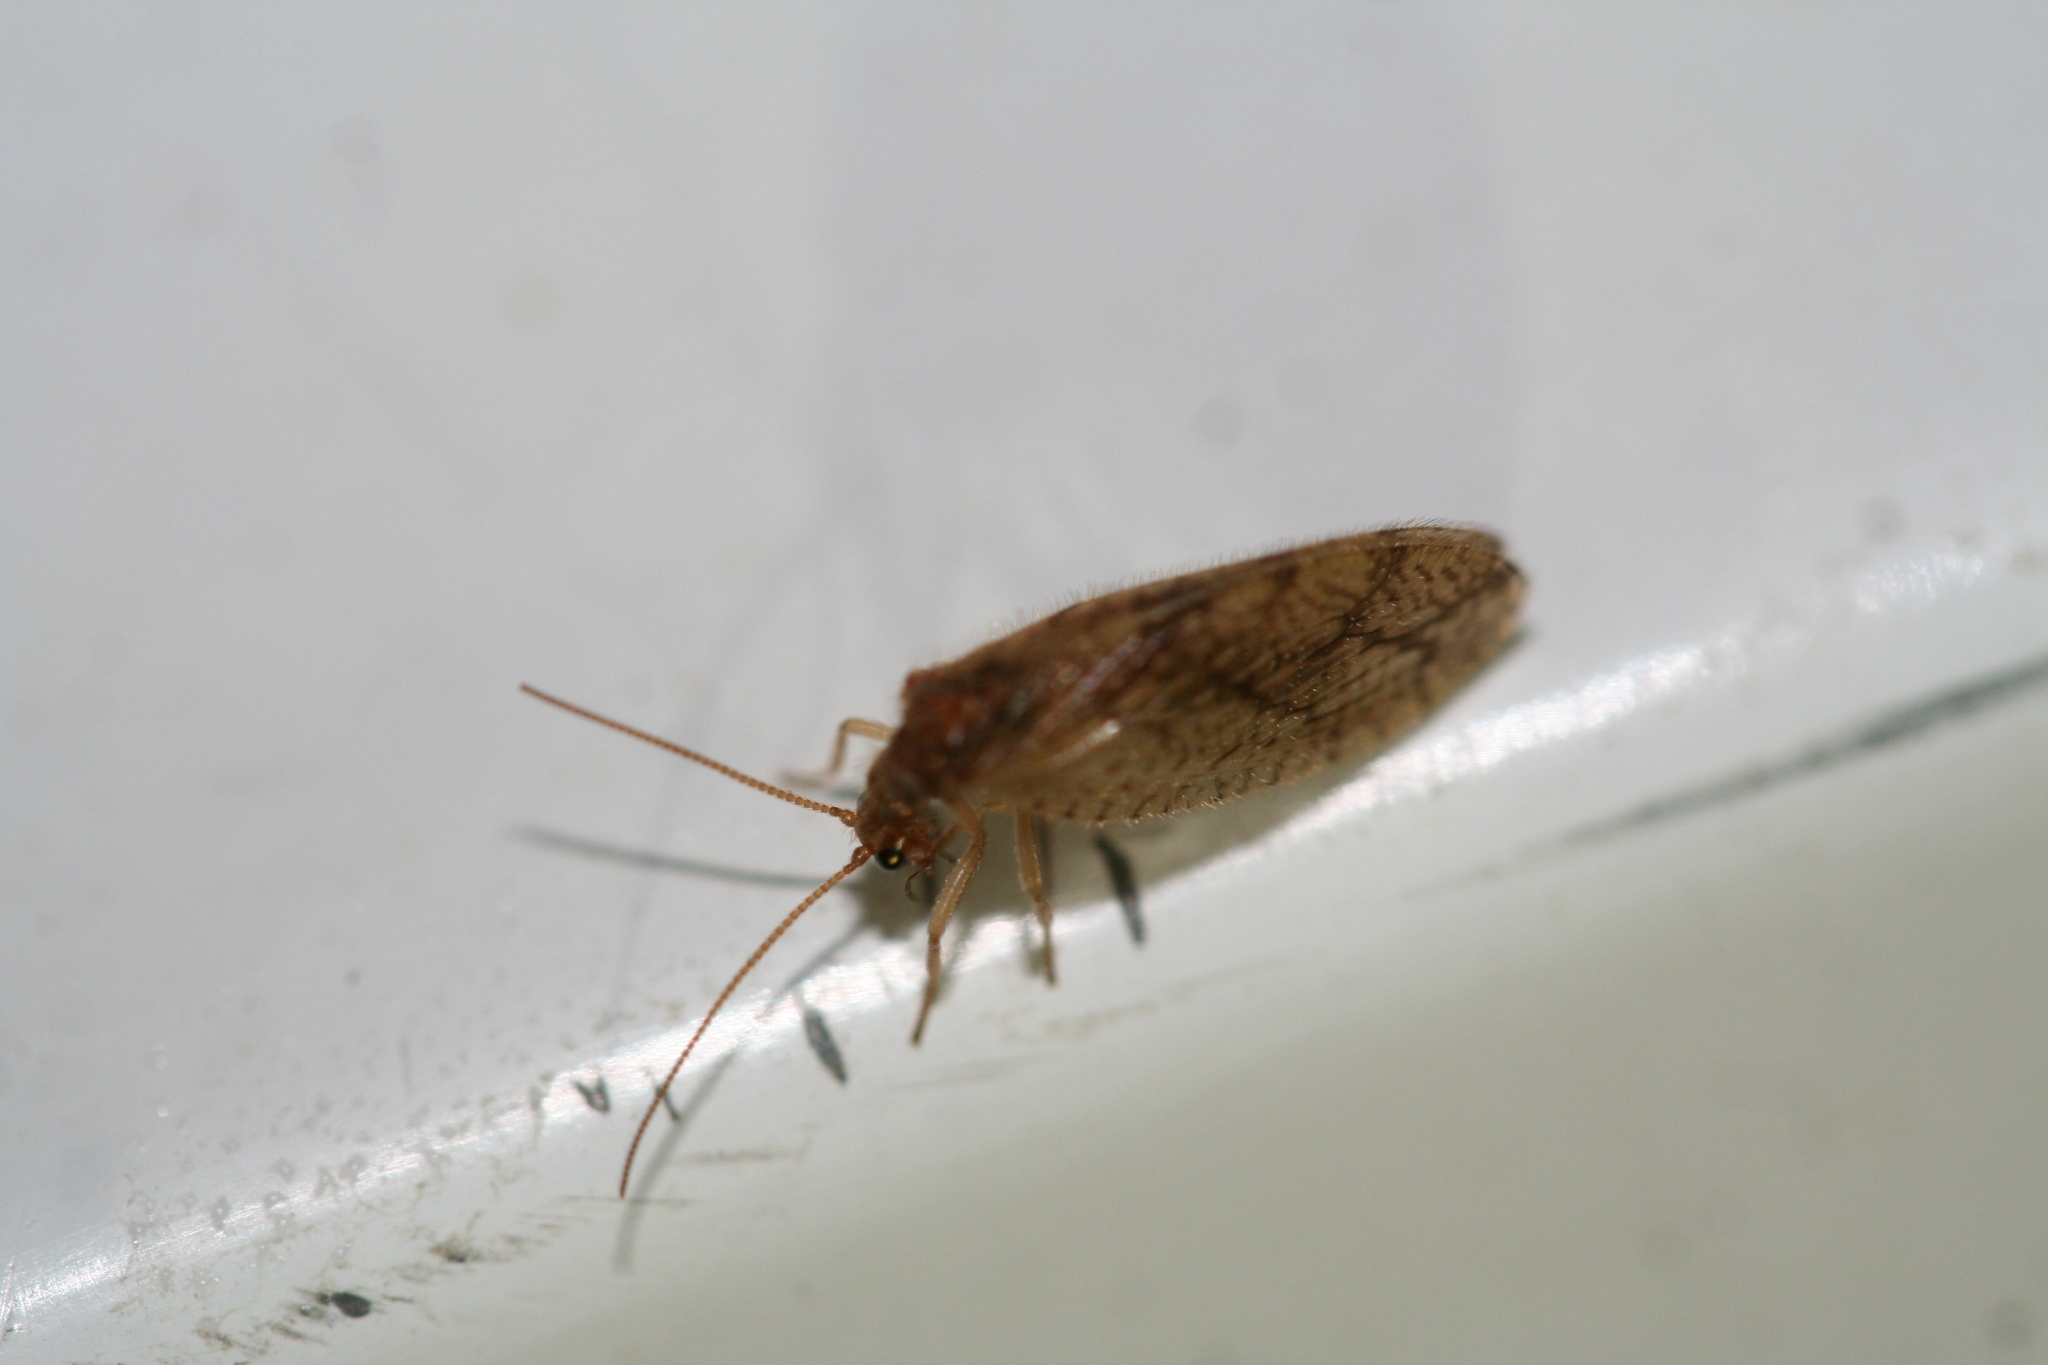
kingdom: Animalia
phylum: Arthropoda
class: Insecta
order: Neuroptera
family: Hemerobiidae
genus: Micromus
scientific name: Micromus angulatus
